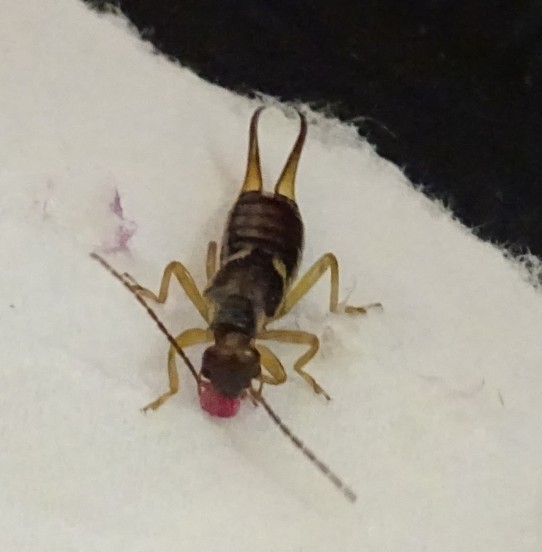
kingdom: Animalia
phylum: Arthropoda
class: Insecta
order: Dermaptera
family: Forficulidae
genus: Forficula
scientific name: Forficula
